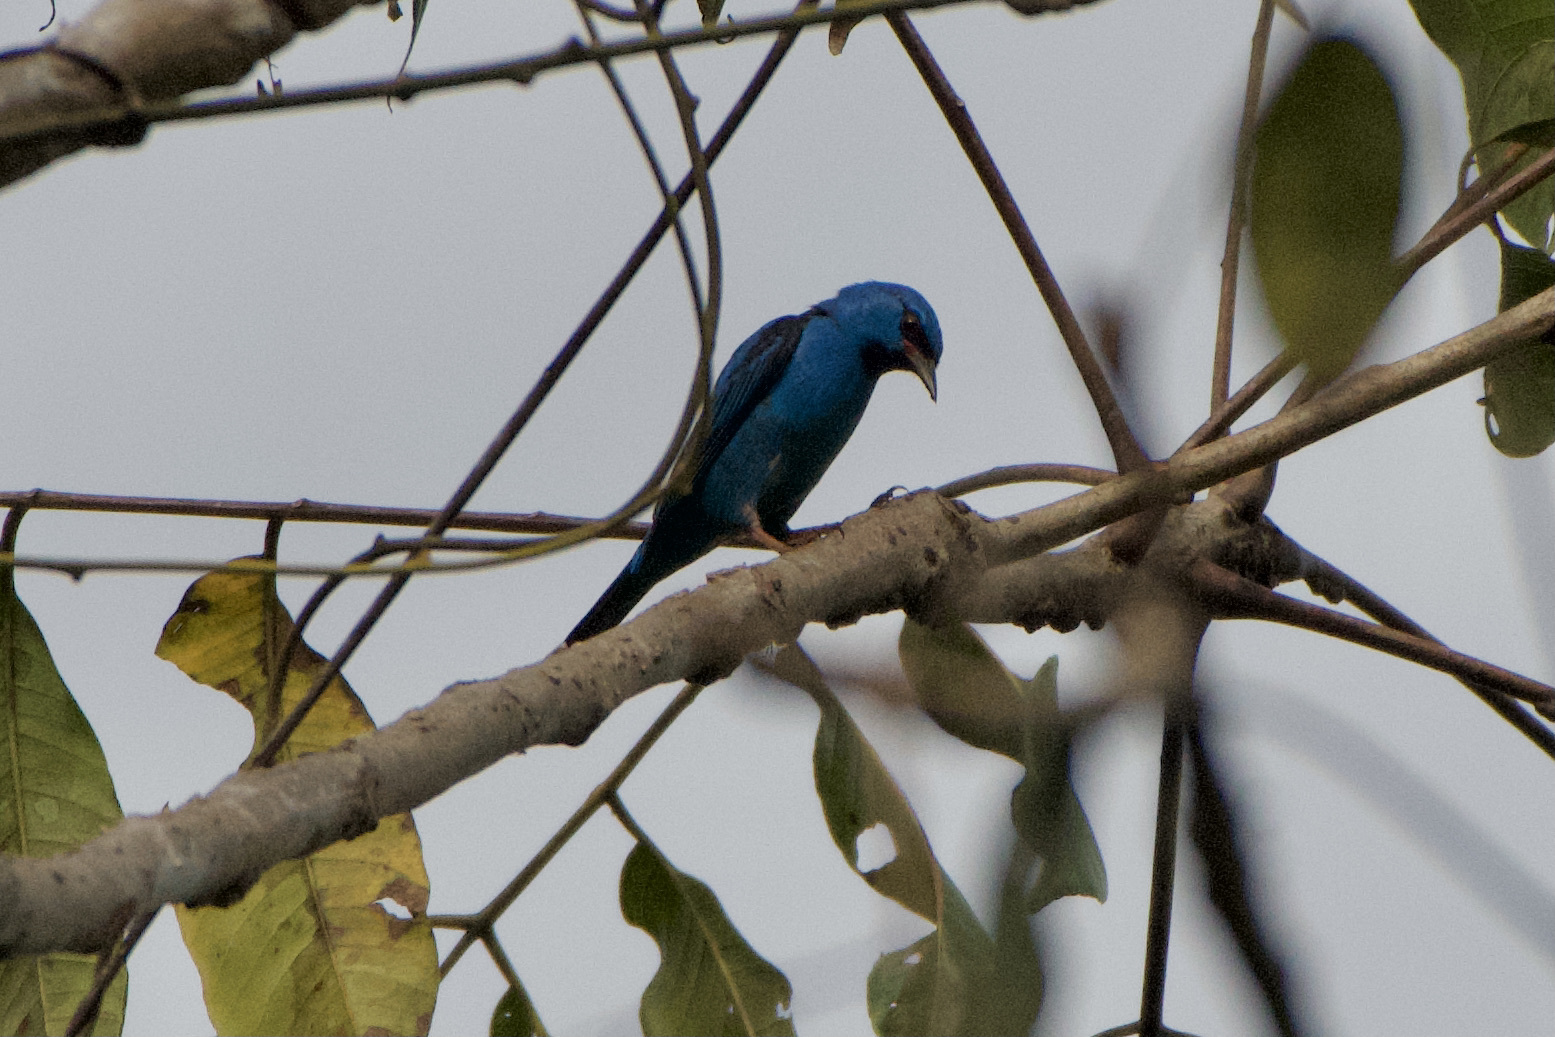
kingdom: Animalia
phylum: Chordata
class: Aves
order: Passeriformes
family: Thraupidae
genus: Dacnis
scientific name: Dacnis cayana
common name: Blue dacnis
